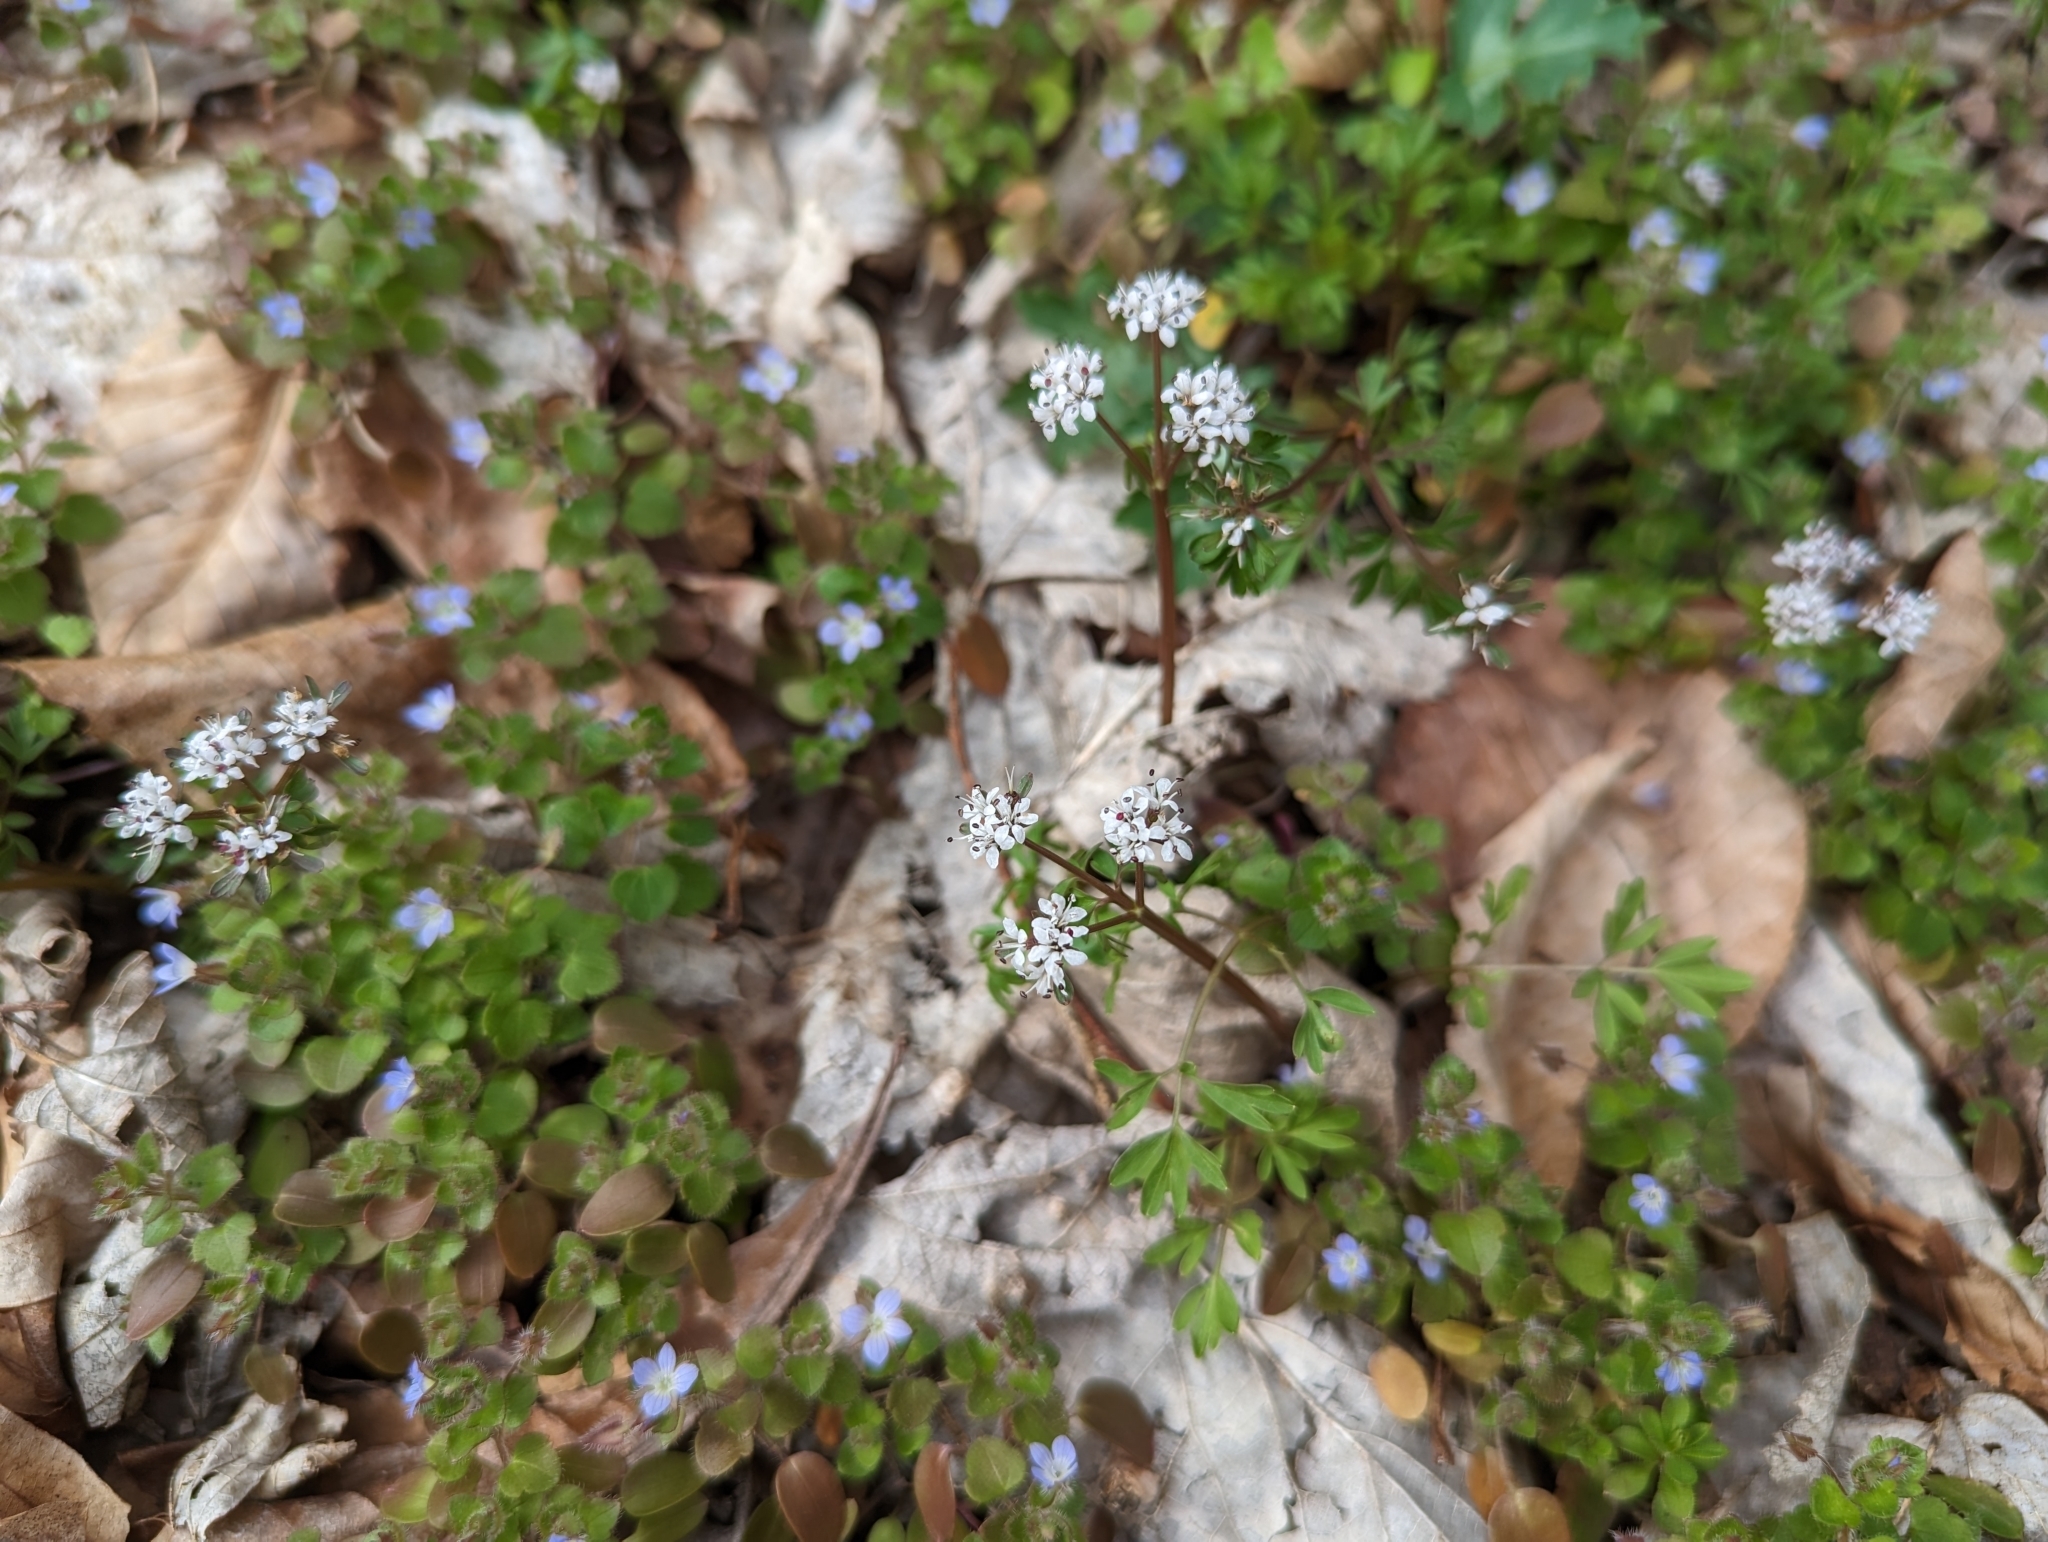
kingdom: Plantae
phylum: Tracheophyta
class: Magnoliopsida
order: Apiales
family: Apiaceae
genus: Erigenia
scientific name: Erigenia bulbosa
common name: Pepper-and-salt
